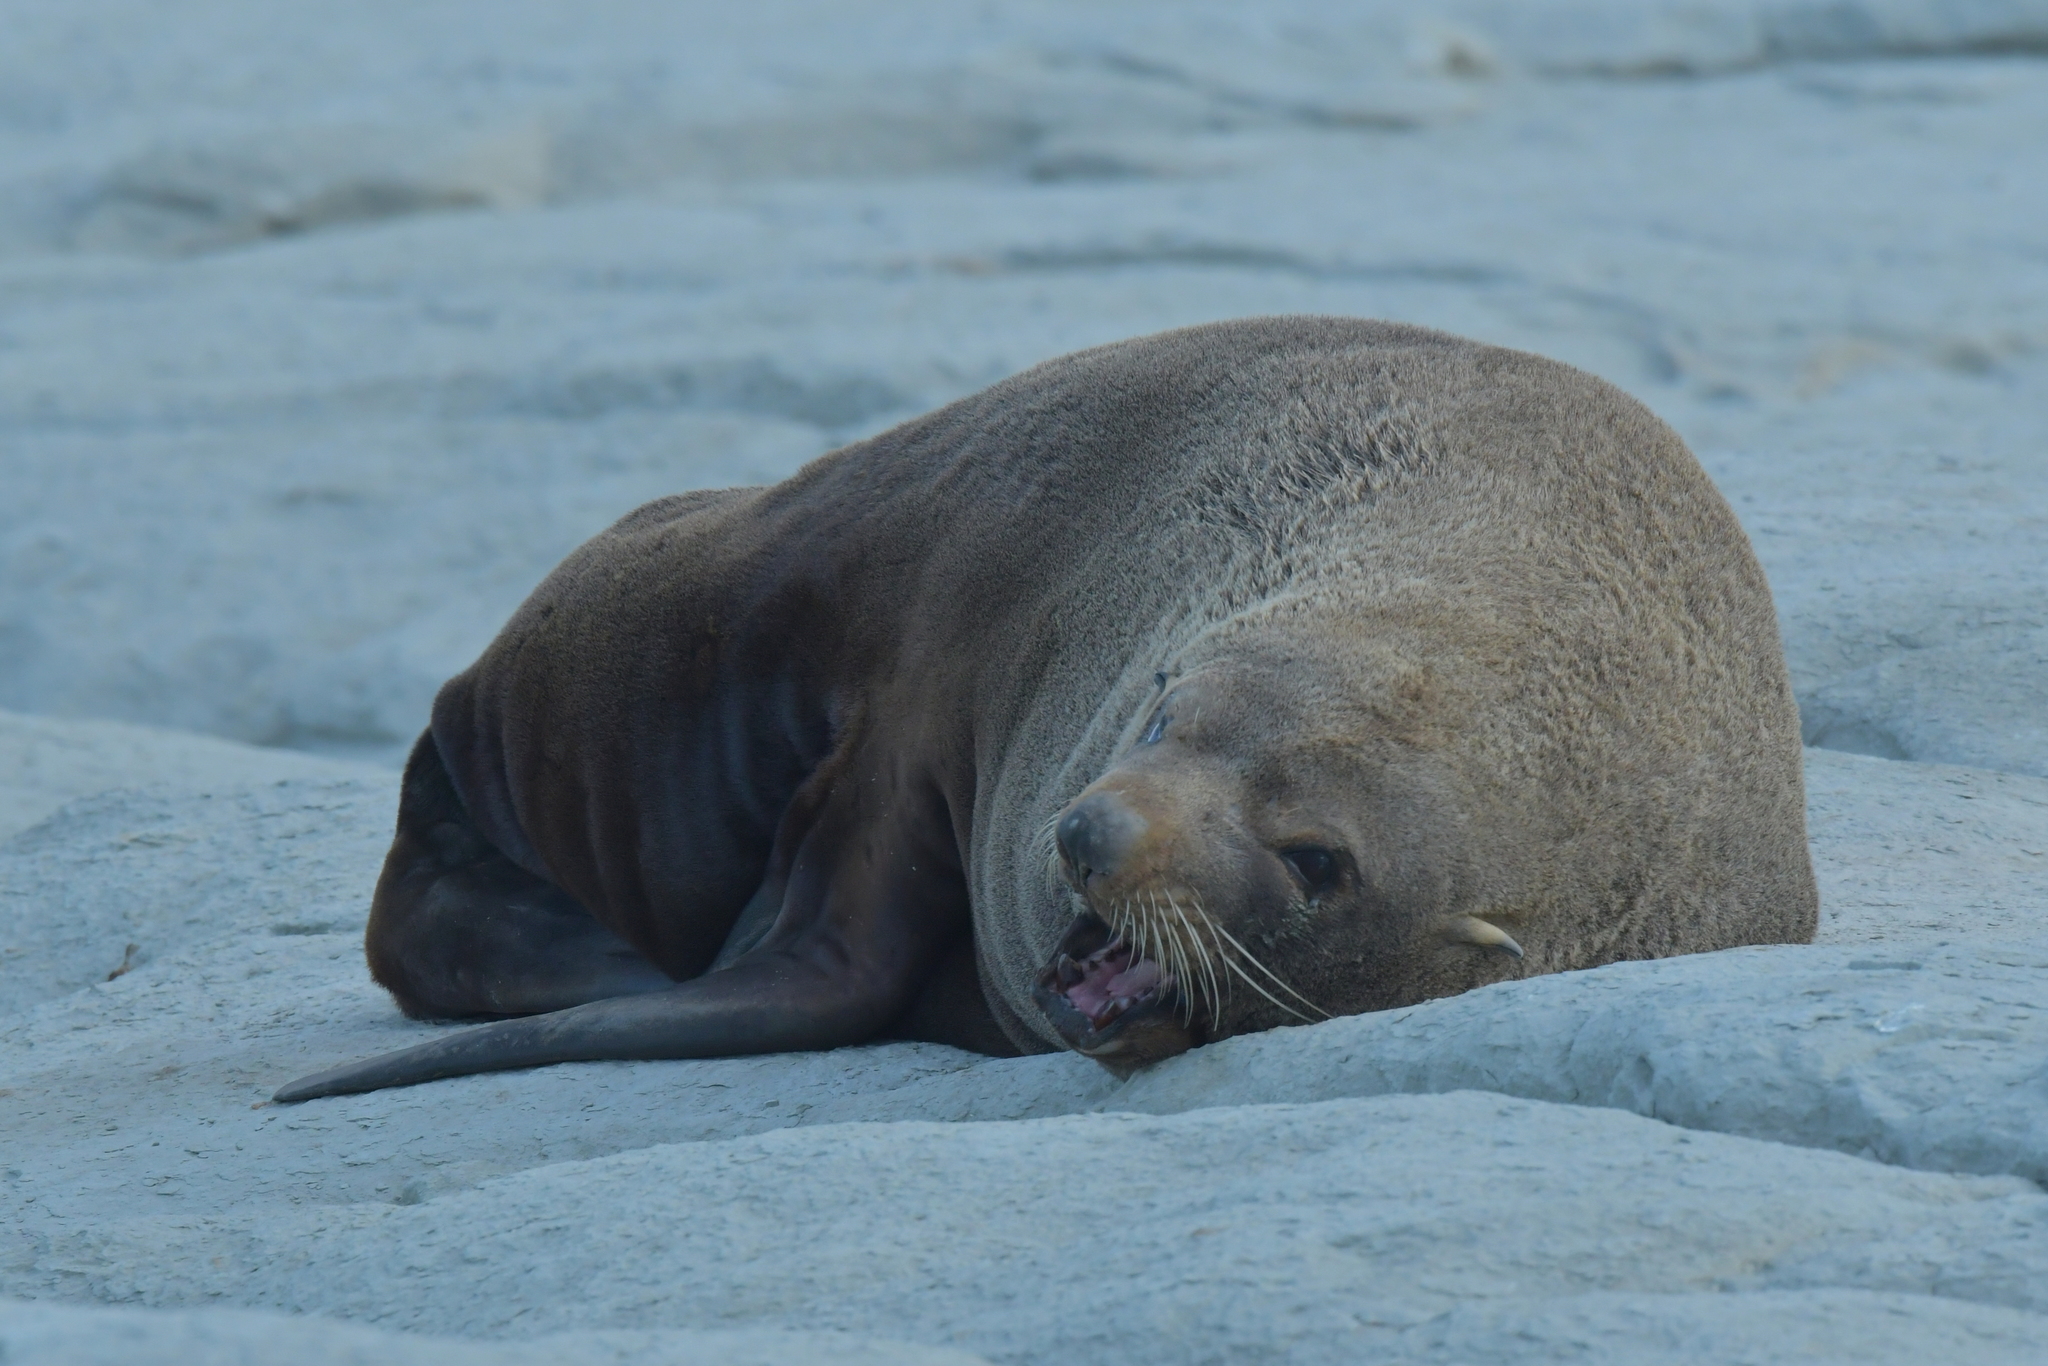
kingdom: Animalia
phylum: Chordata
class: Mammalia
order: Carnivora
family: Otariidae
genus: Arctocephalus
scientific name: Arctocephalus forsteri
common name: New zealand fur seal
